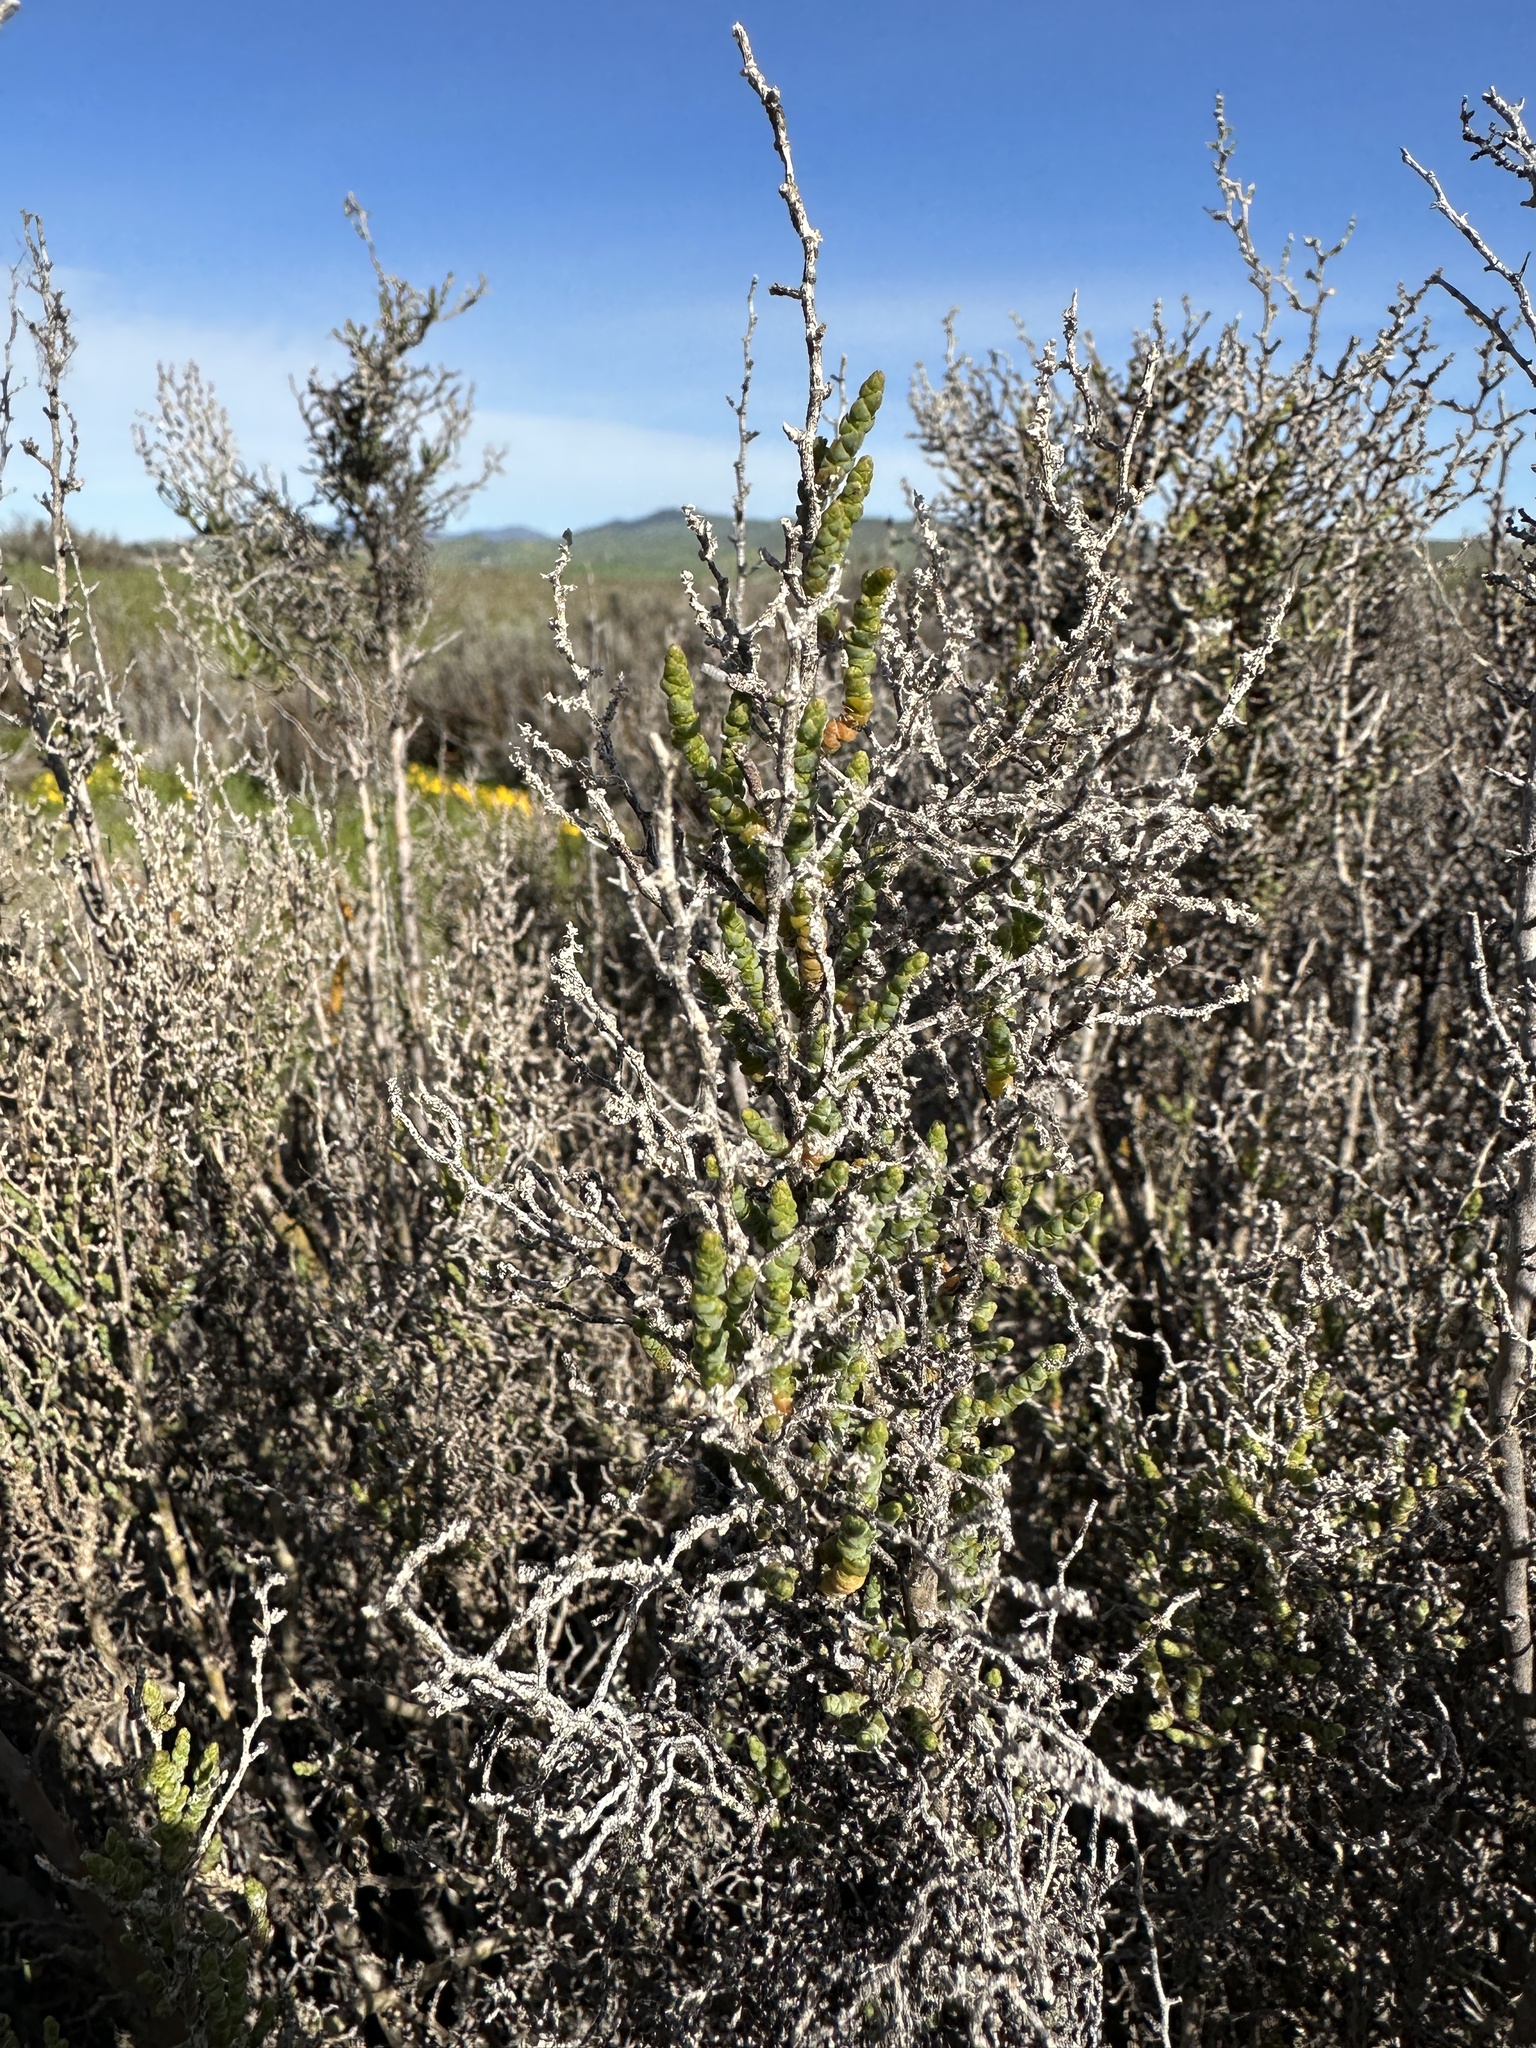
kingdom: Plantae
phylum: Tracheophyta
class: Magnoliopsida
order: Caryophyllales
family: Amaranthaceae
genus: Allenrolfea
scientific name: Allenrolfea occidentalis
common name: Iodine-bush
